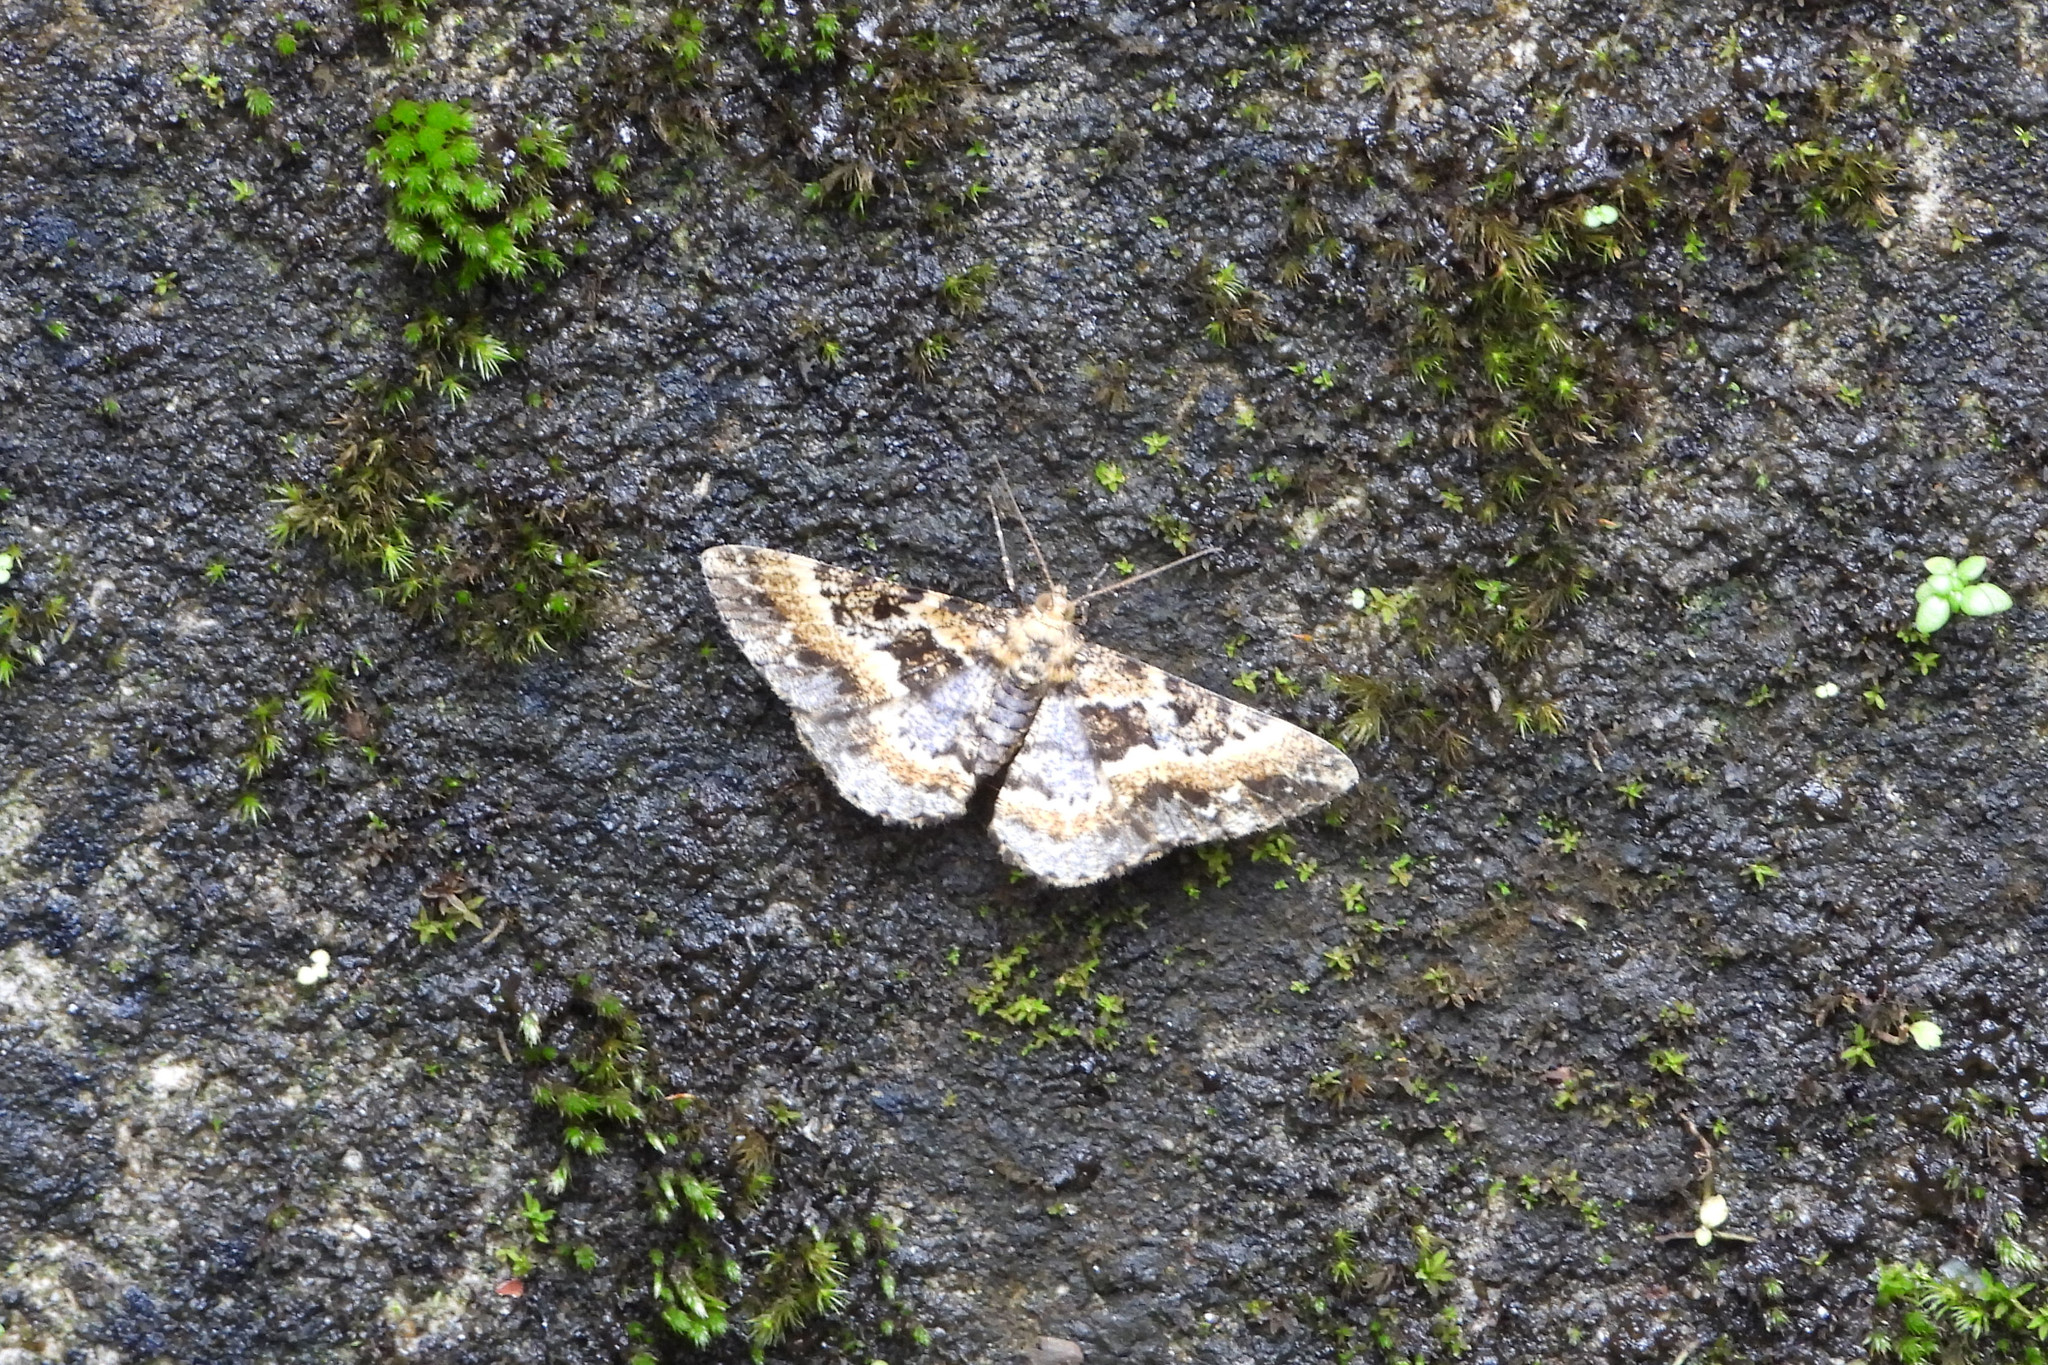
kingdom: Animalia
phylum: Arthropoda
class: Insecta
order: Lepidoptera
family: Geometridae
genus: Harutaea
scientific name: Harutaea flavizona
